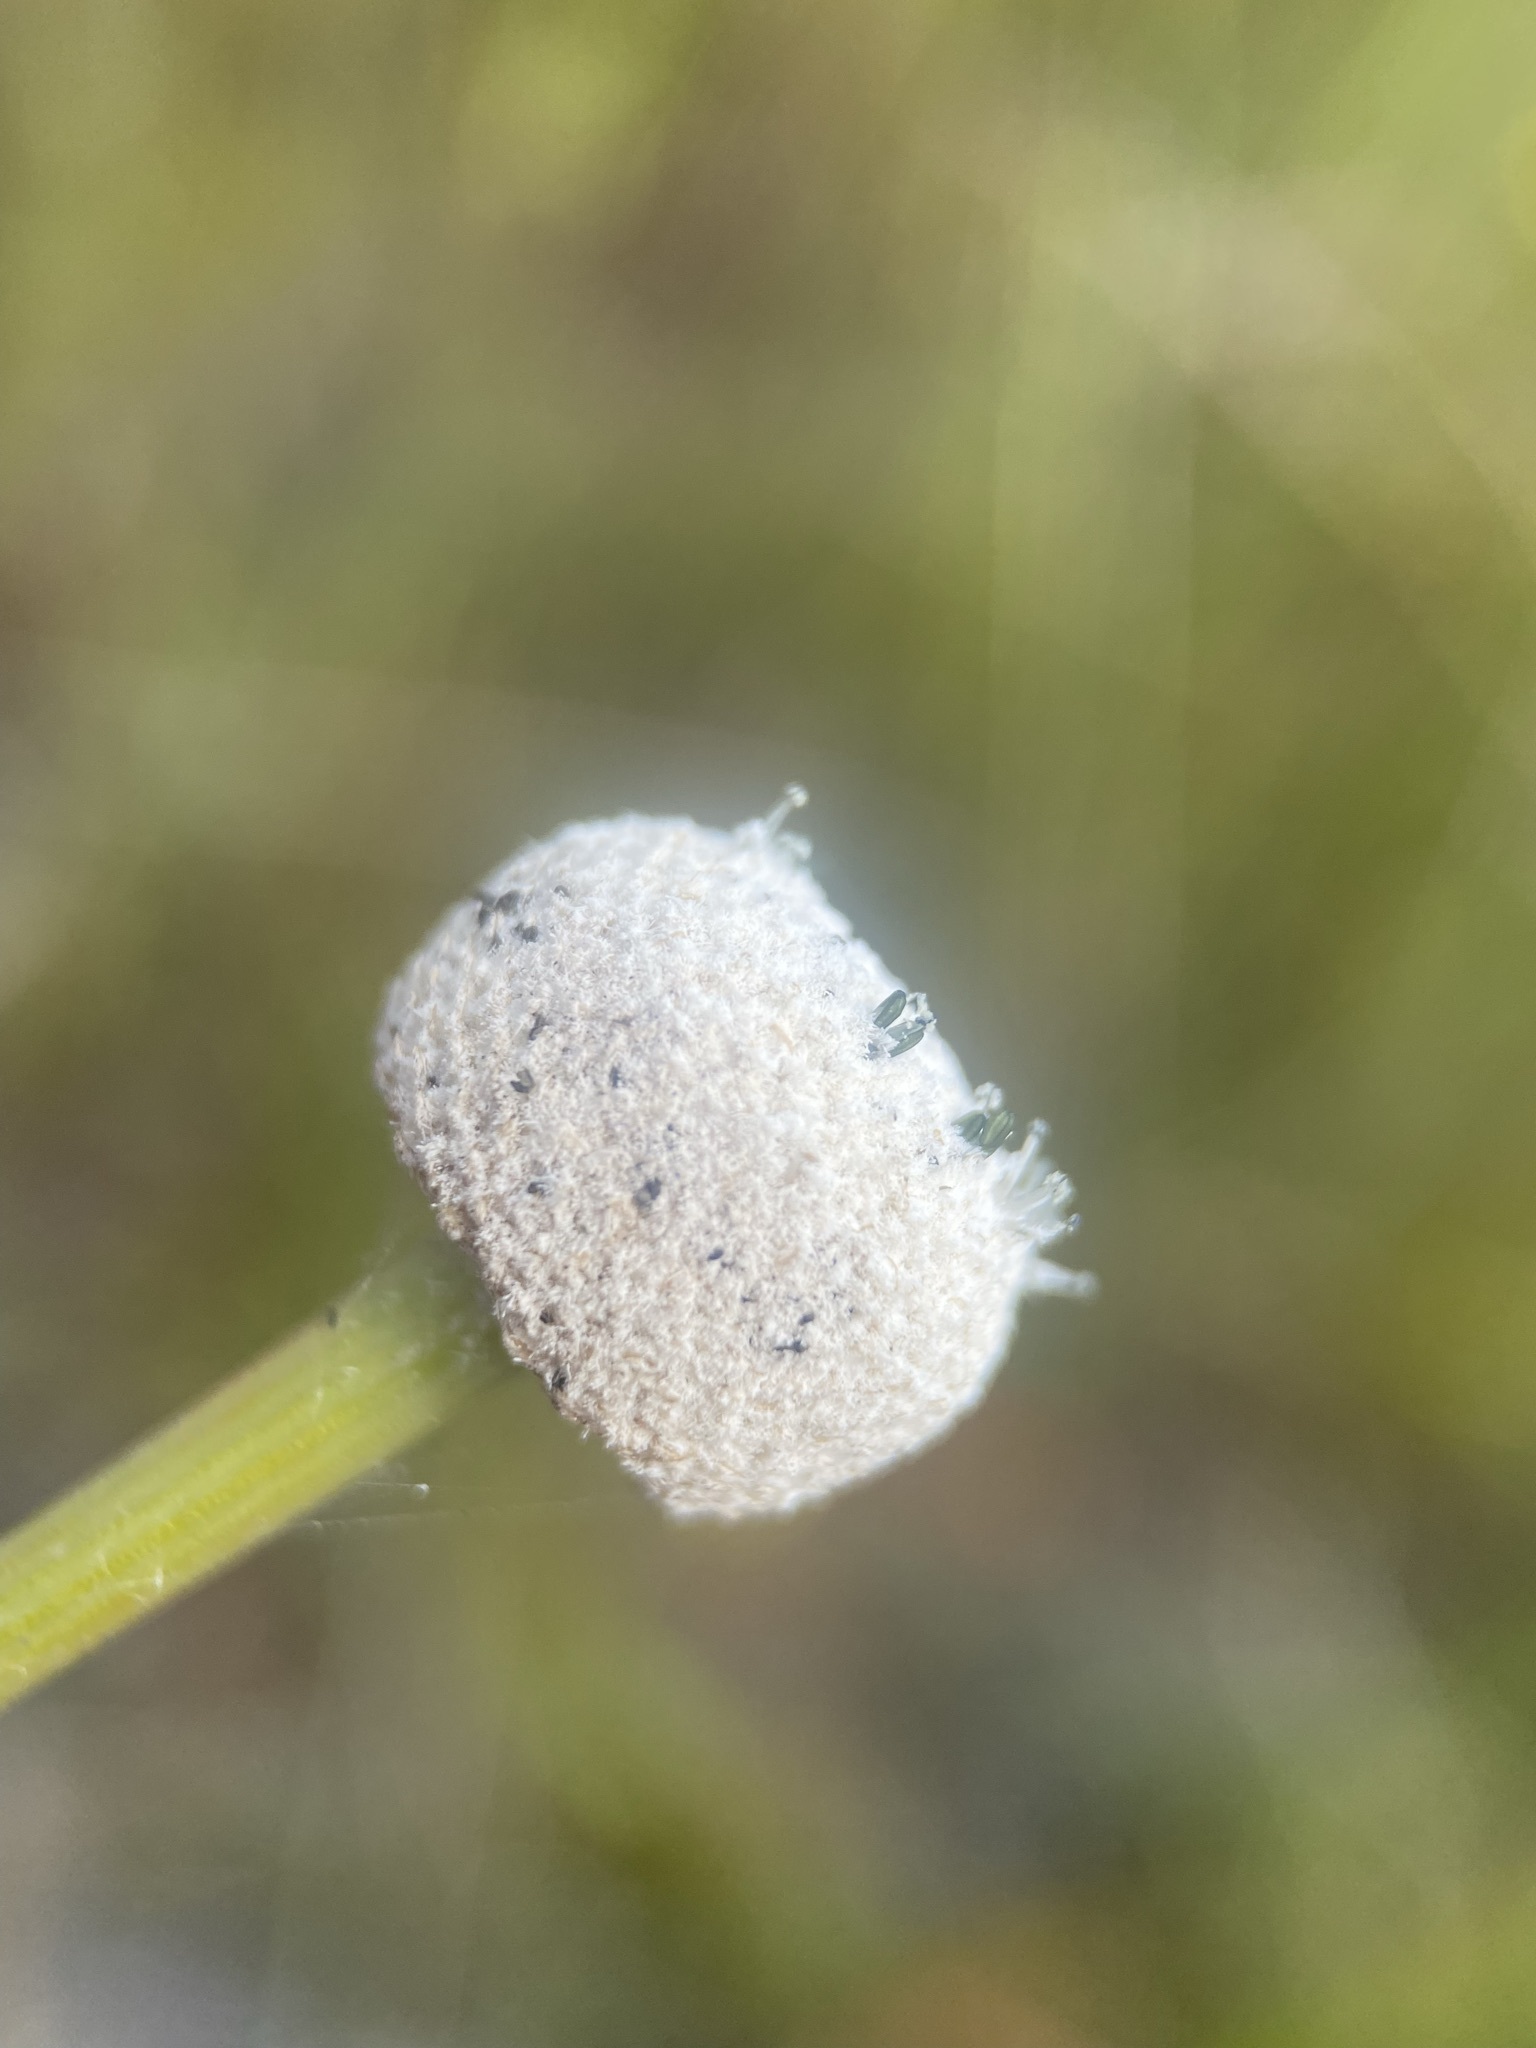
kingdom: Plantae
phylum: Tracheophyta
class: Liliopsida
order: Poales
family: Eriocaulaceae
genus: Eriocaulon
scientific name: Eriocaulon decangulare
